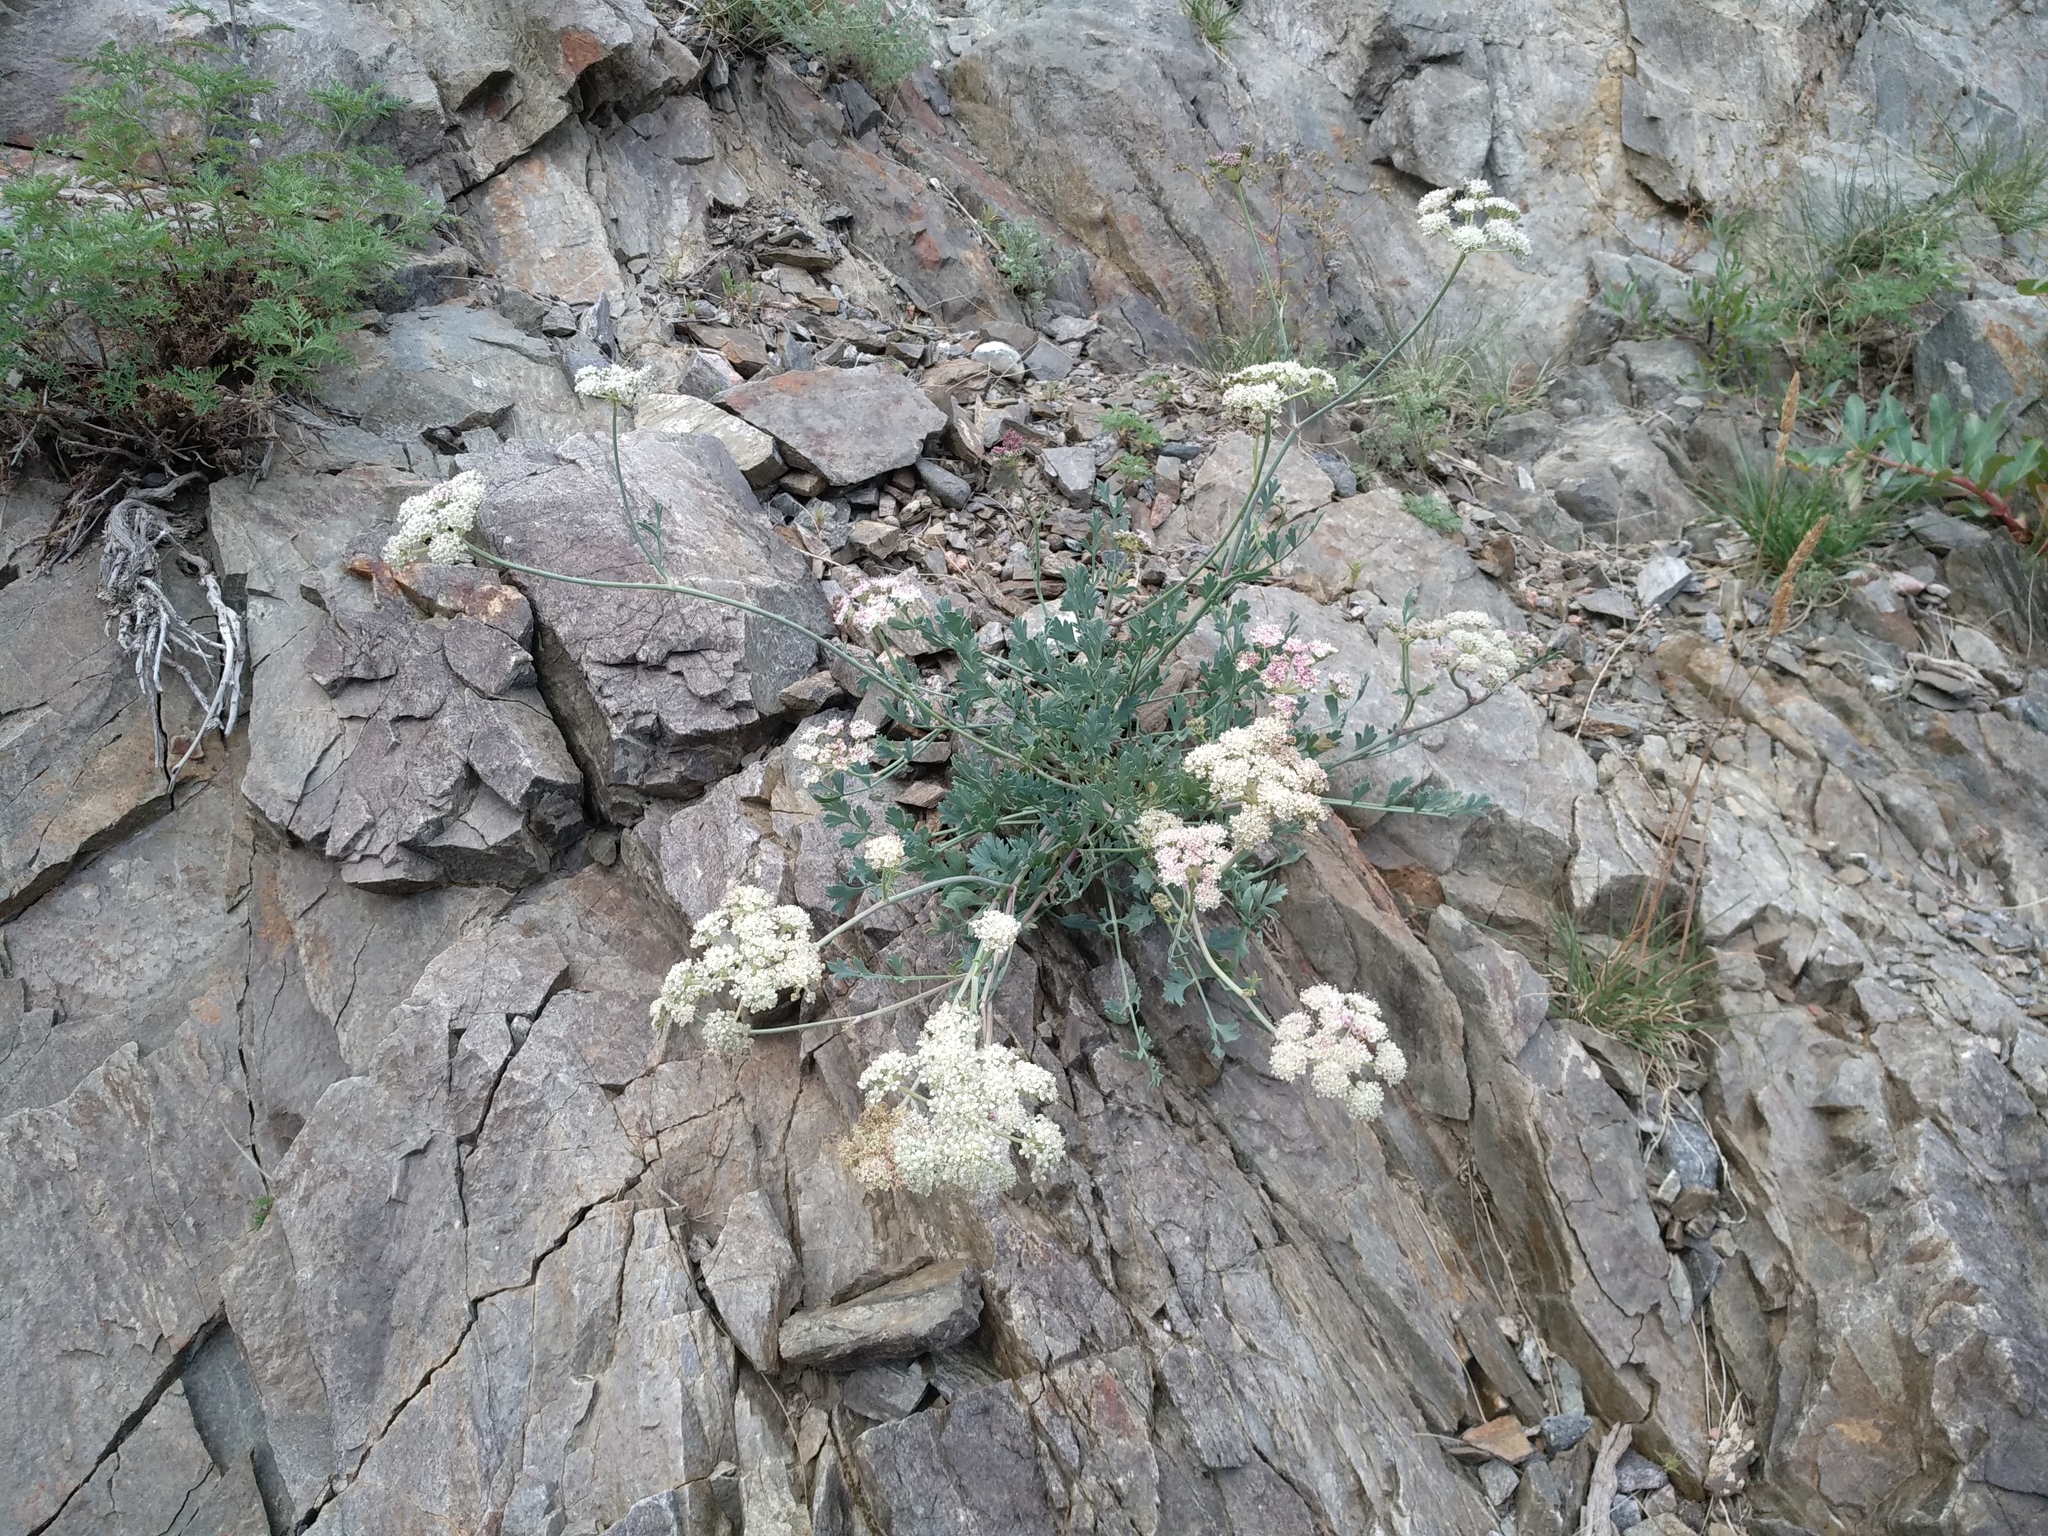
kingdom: Plantae
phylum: Tracheophyta
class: Magnoliopsida
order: Apiales
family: Apiaceae
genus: Seseli
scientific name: Seseli grubovii
